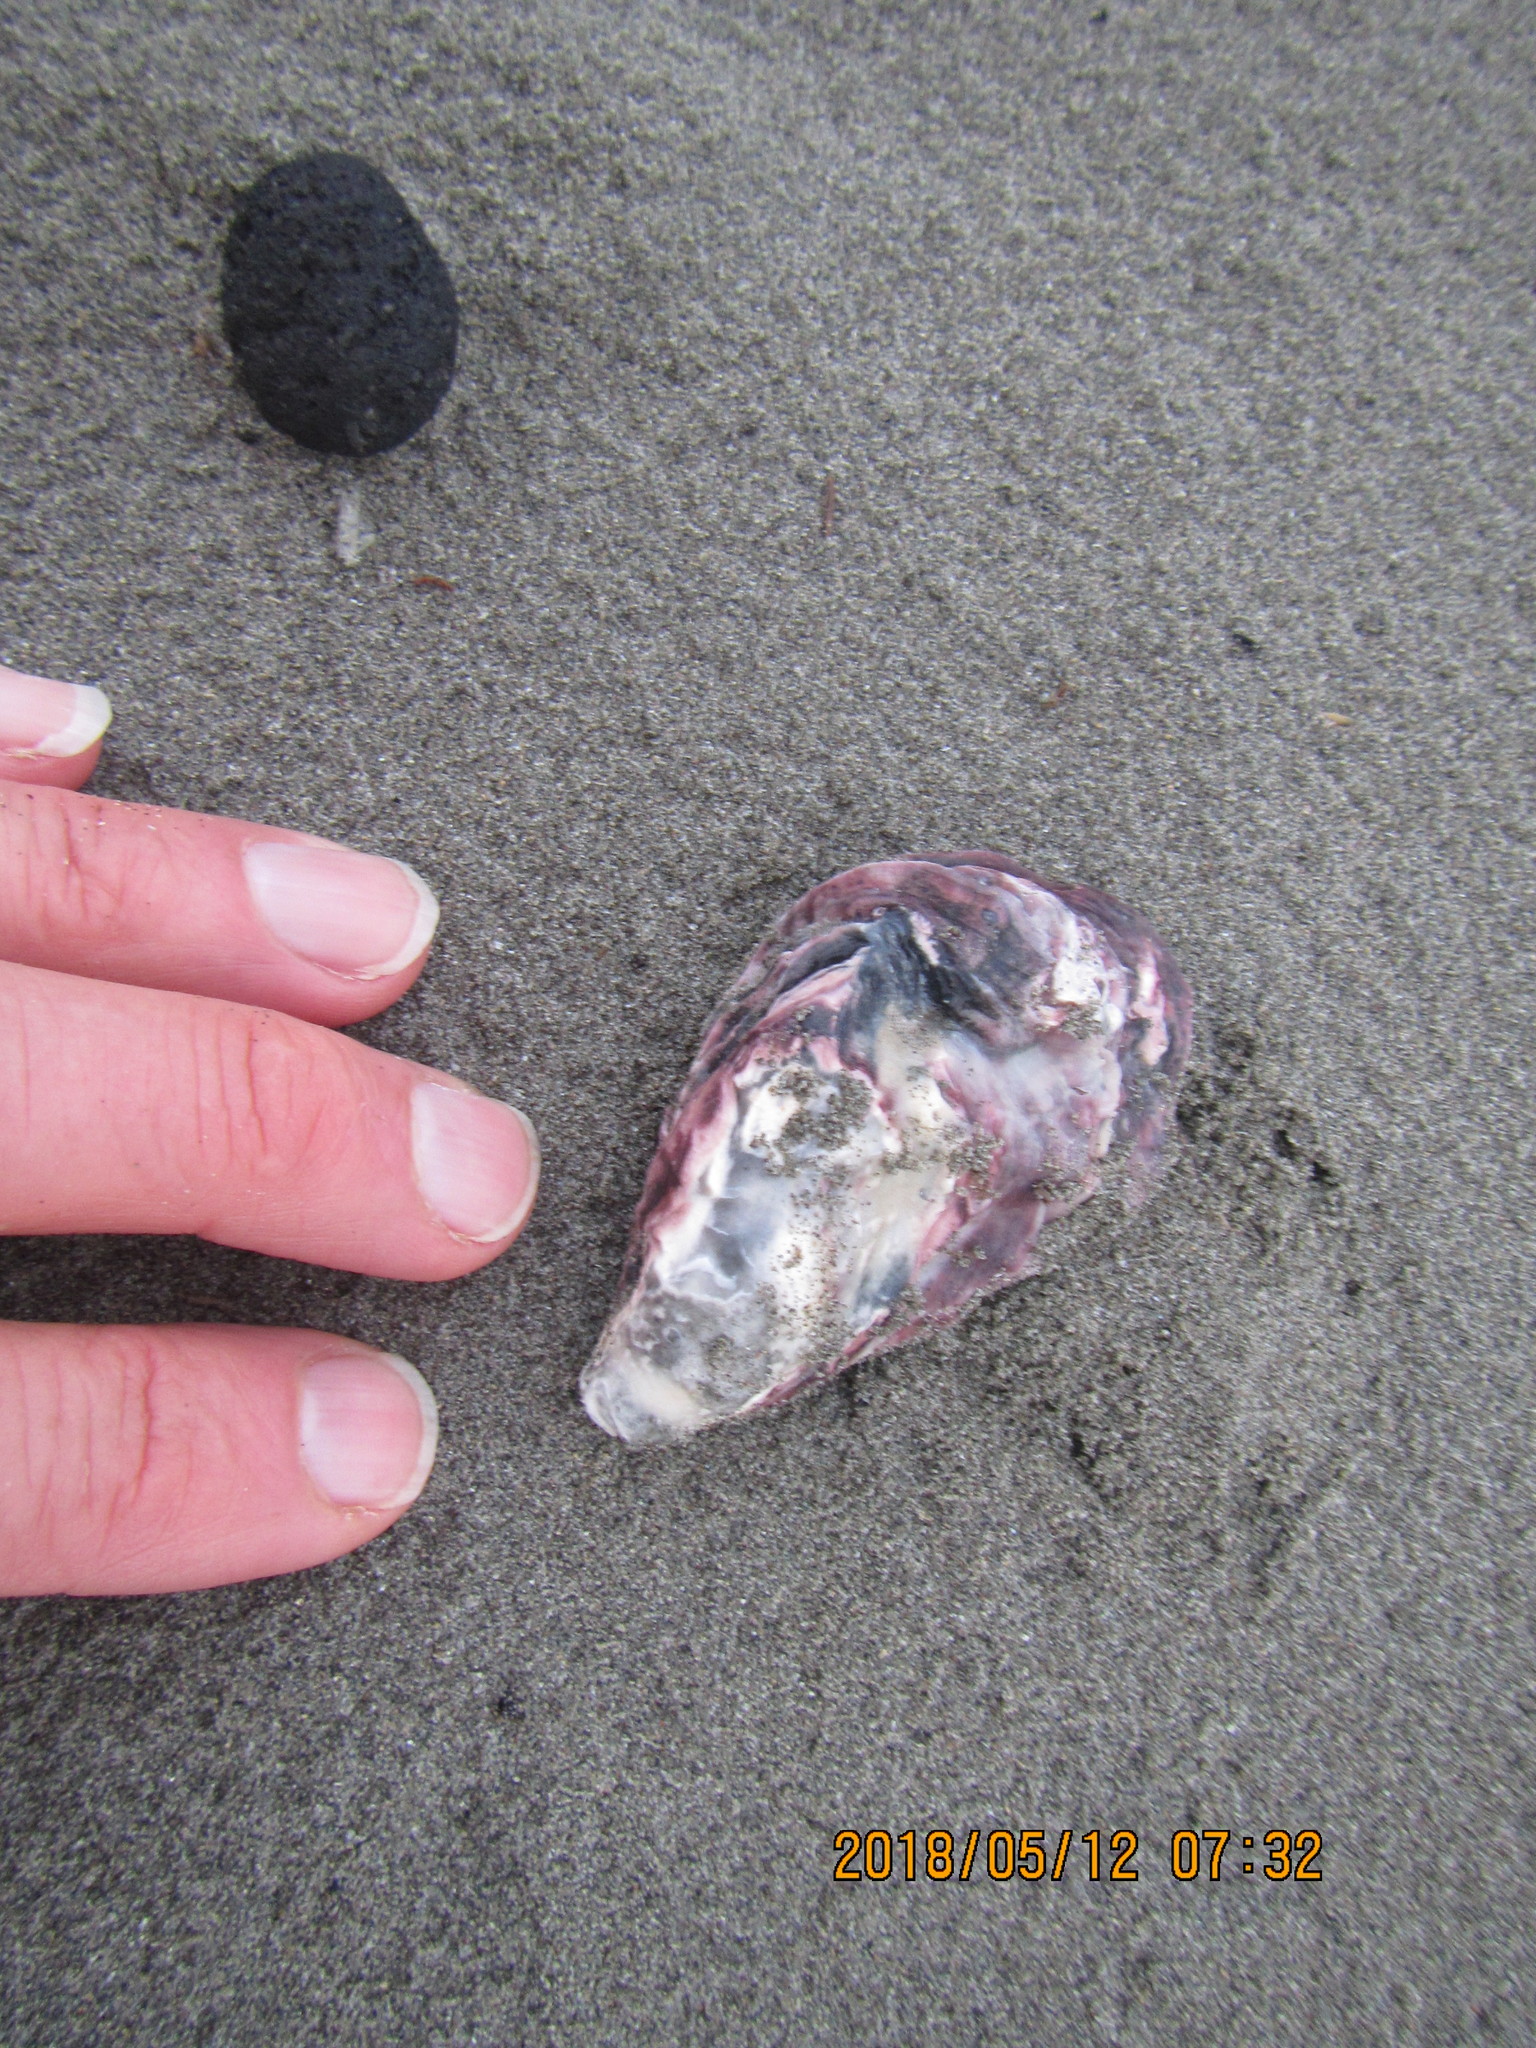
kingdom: Animalia
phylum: Mollusca
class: Bivalvia
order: Ostreida
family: Ostreidae
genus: Magallana
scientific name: Magallana gigas
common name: Pacific oyster
